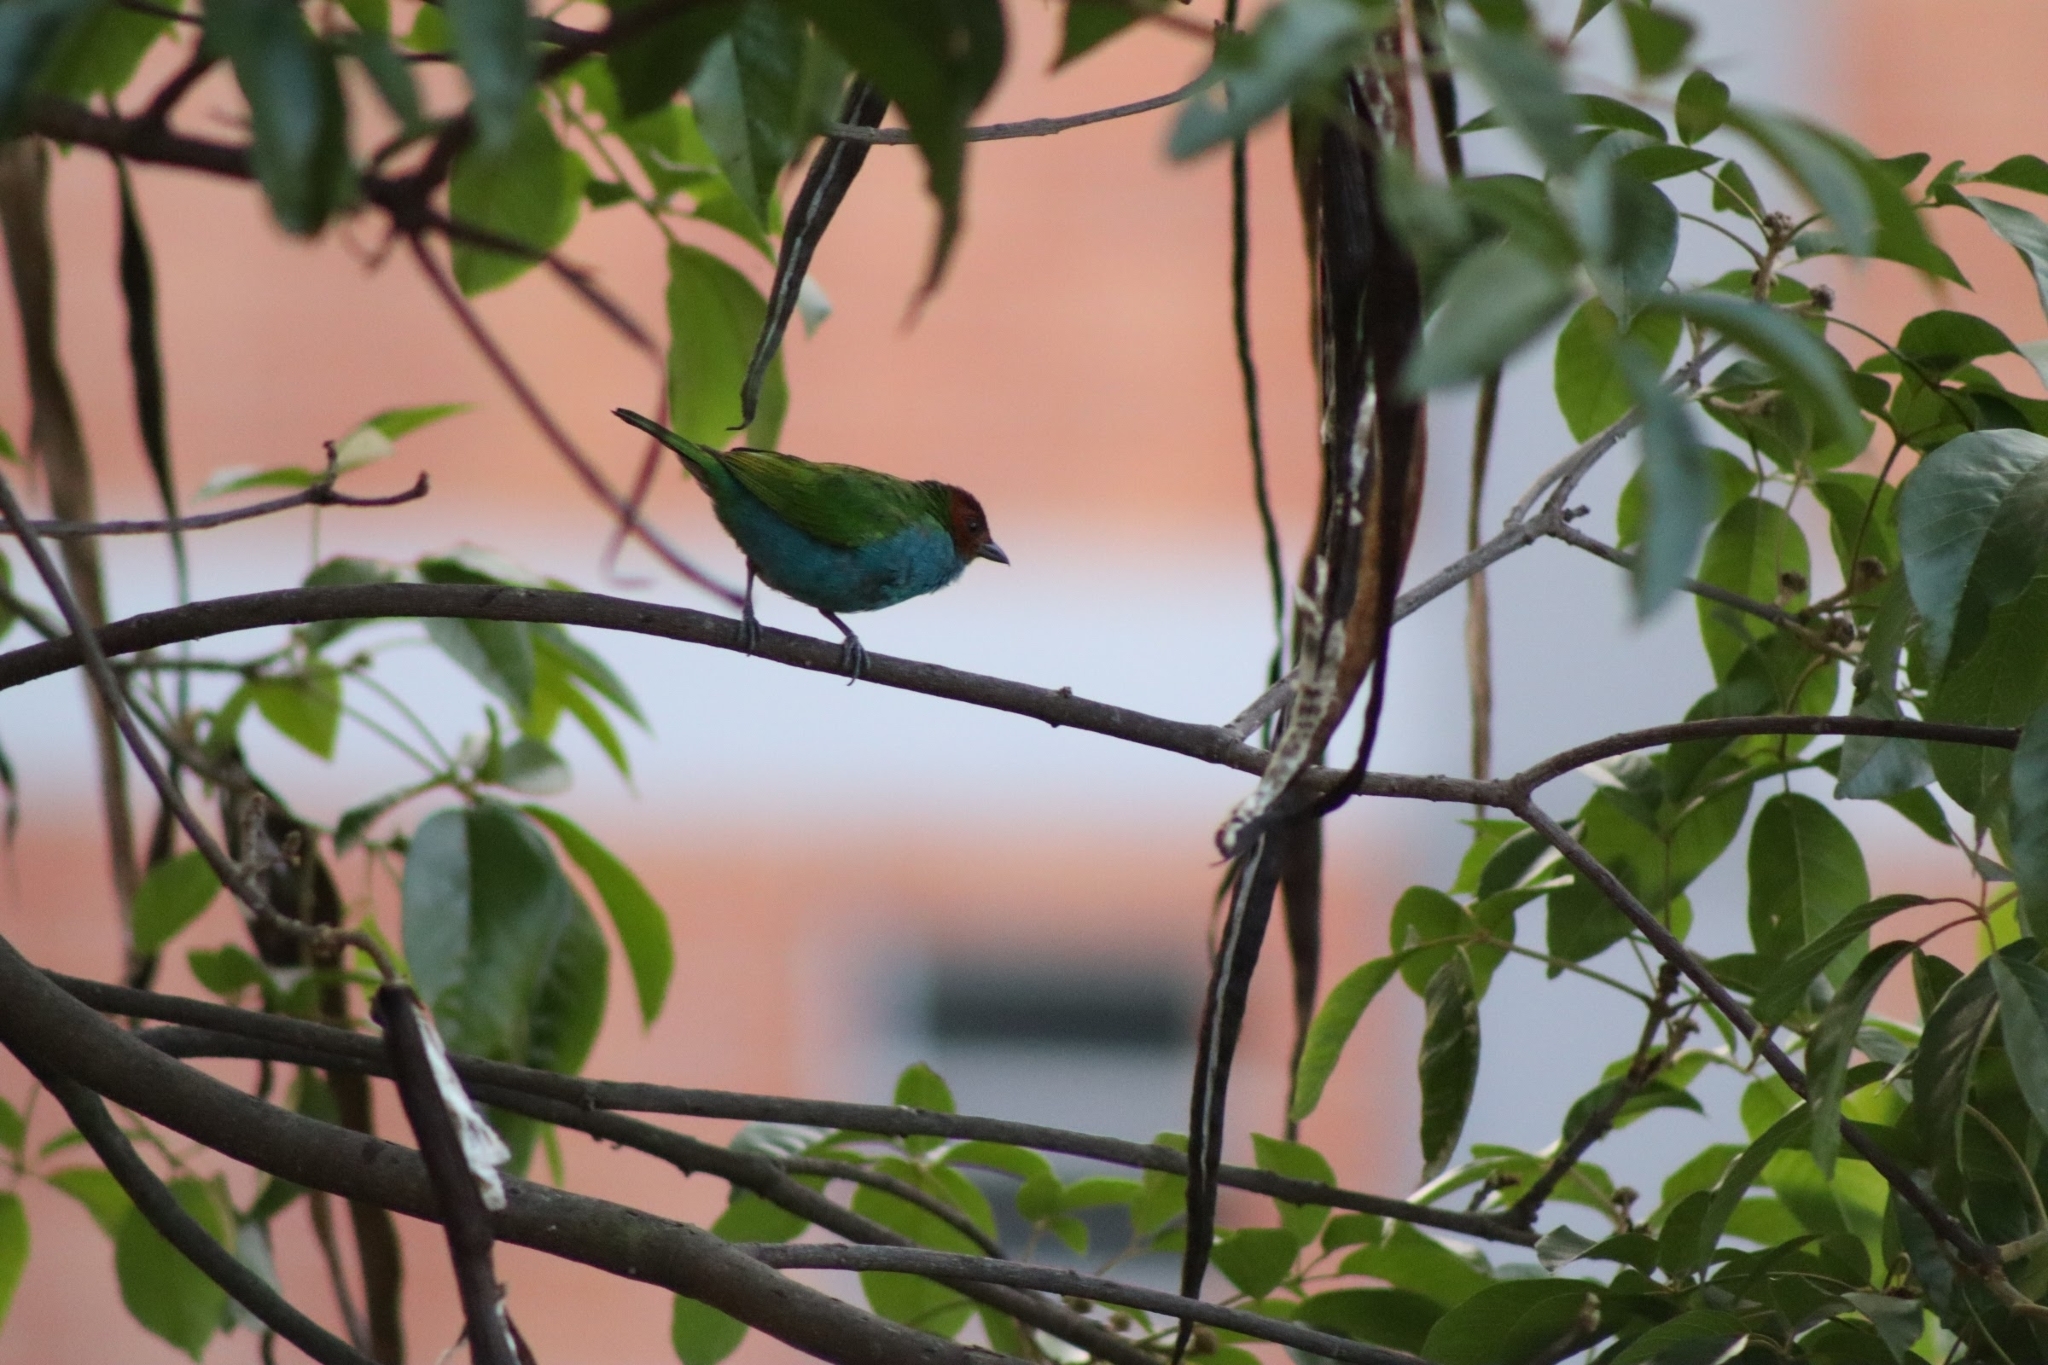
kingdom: Animalia
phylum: Chordata
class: Aves
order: Passeriformes
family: Thraupidae
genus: Tangara
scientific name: Tangara gyrola
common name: Bay-headed tanager
